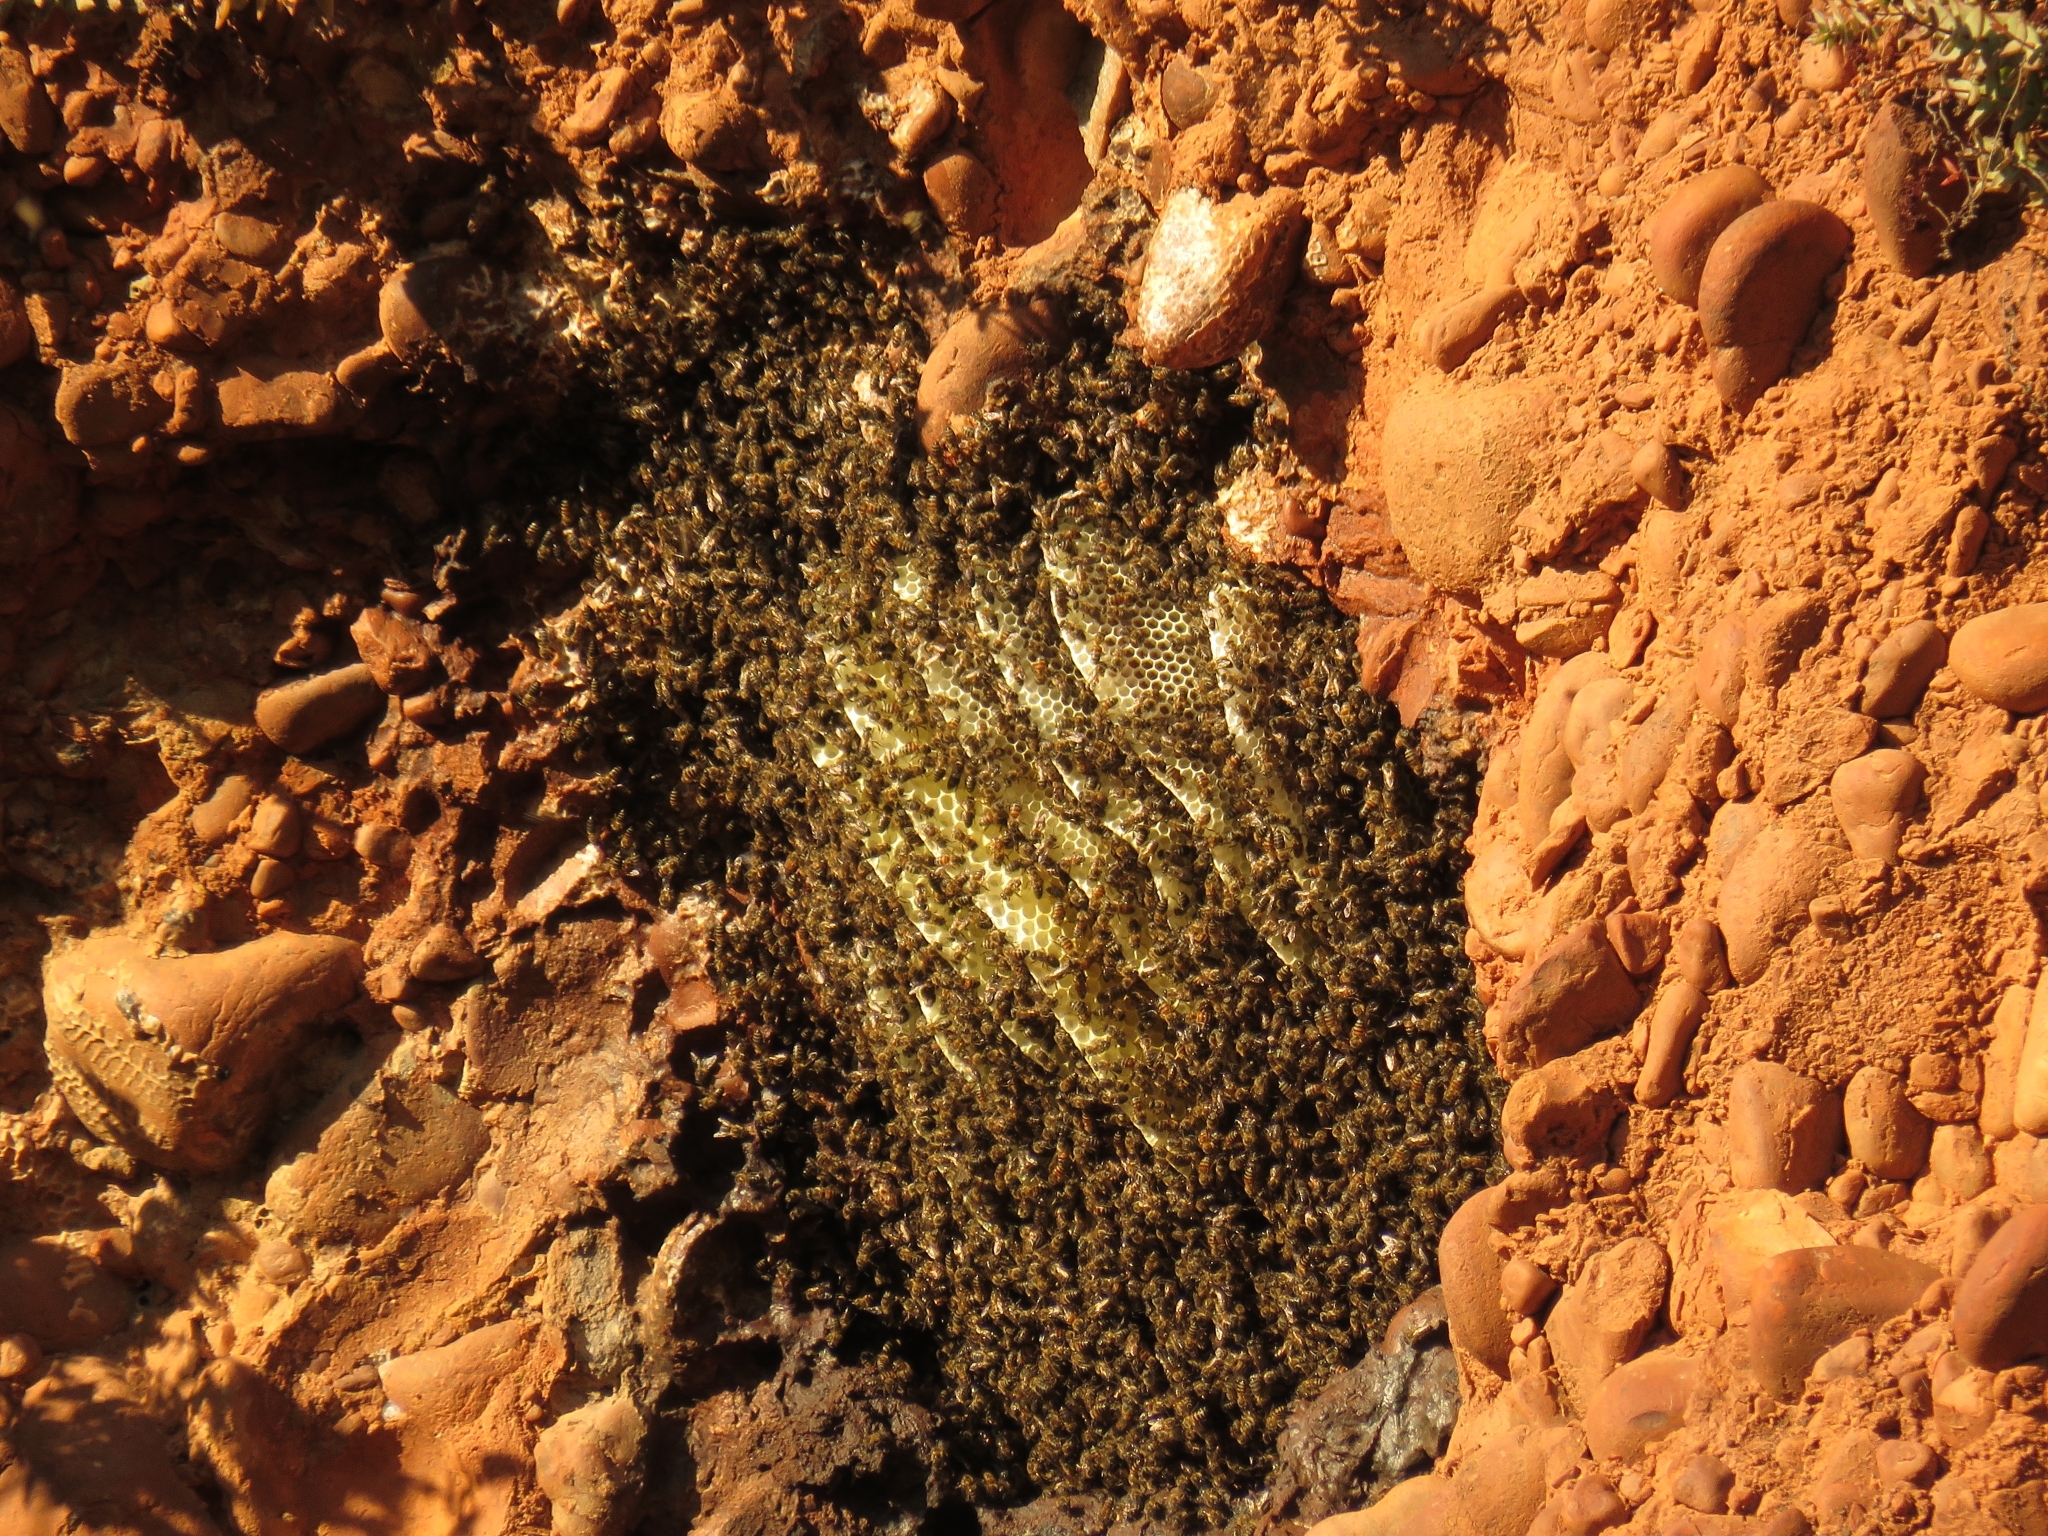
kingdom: Animalia
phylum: Arthropoda
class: Insecta
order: Hymenoptera
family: Apidae
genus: Apis
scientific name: Apis mellifera
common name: Honey bee
